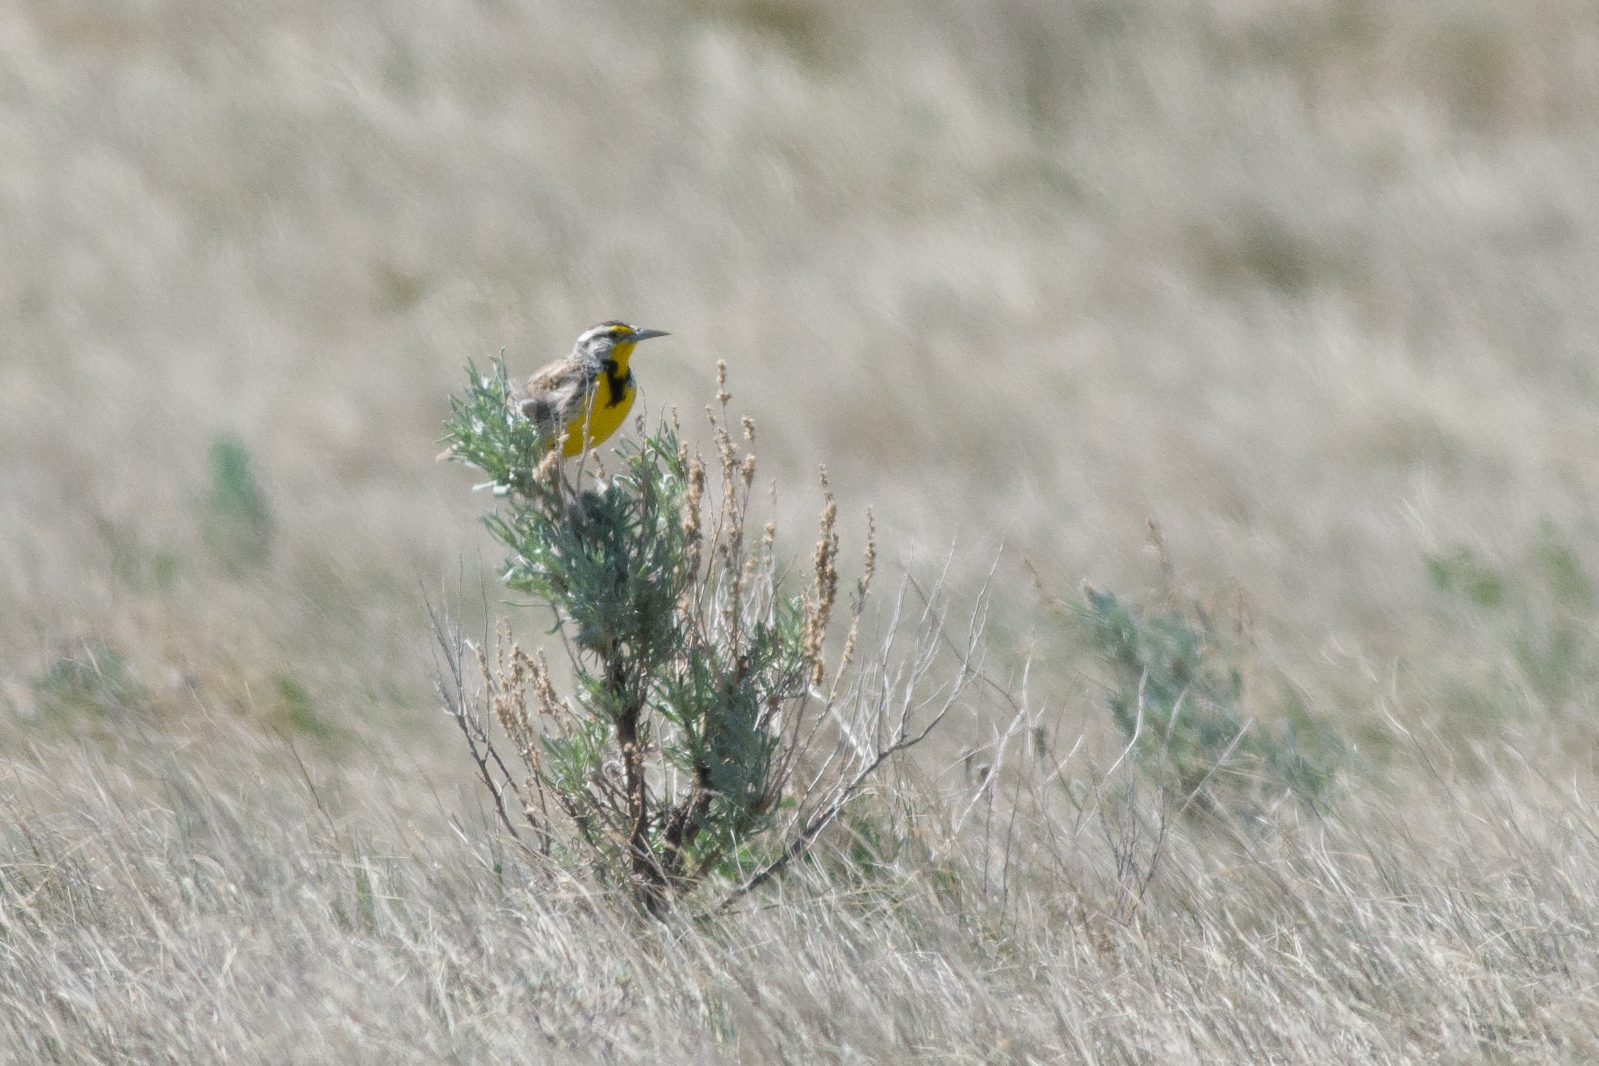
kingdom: Animalia
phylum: Chordata
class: Aves
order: Passeriformes
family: Icteridae
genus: Sturnella
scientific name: Sturnella neglecta
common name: Western meadowlark
